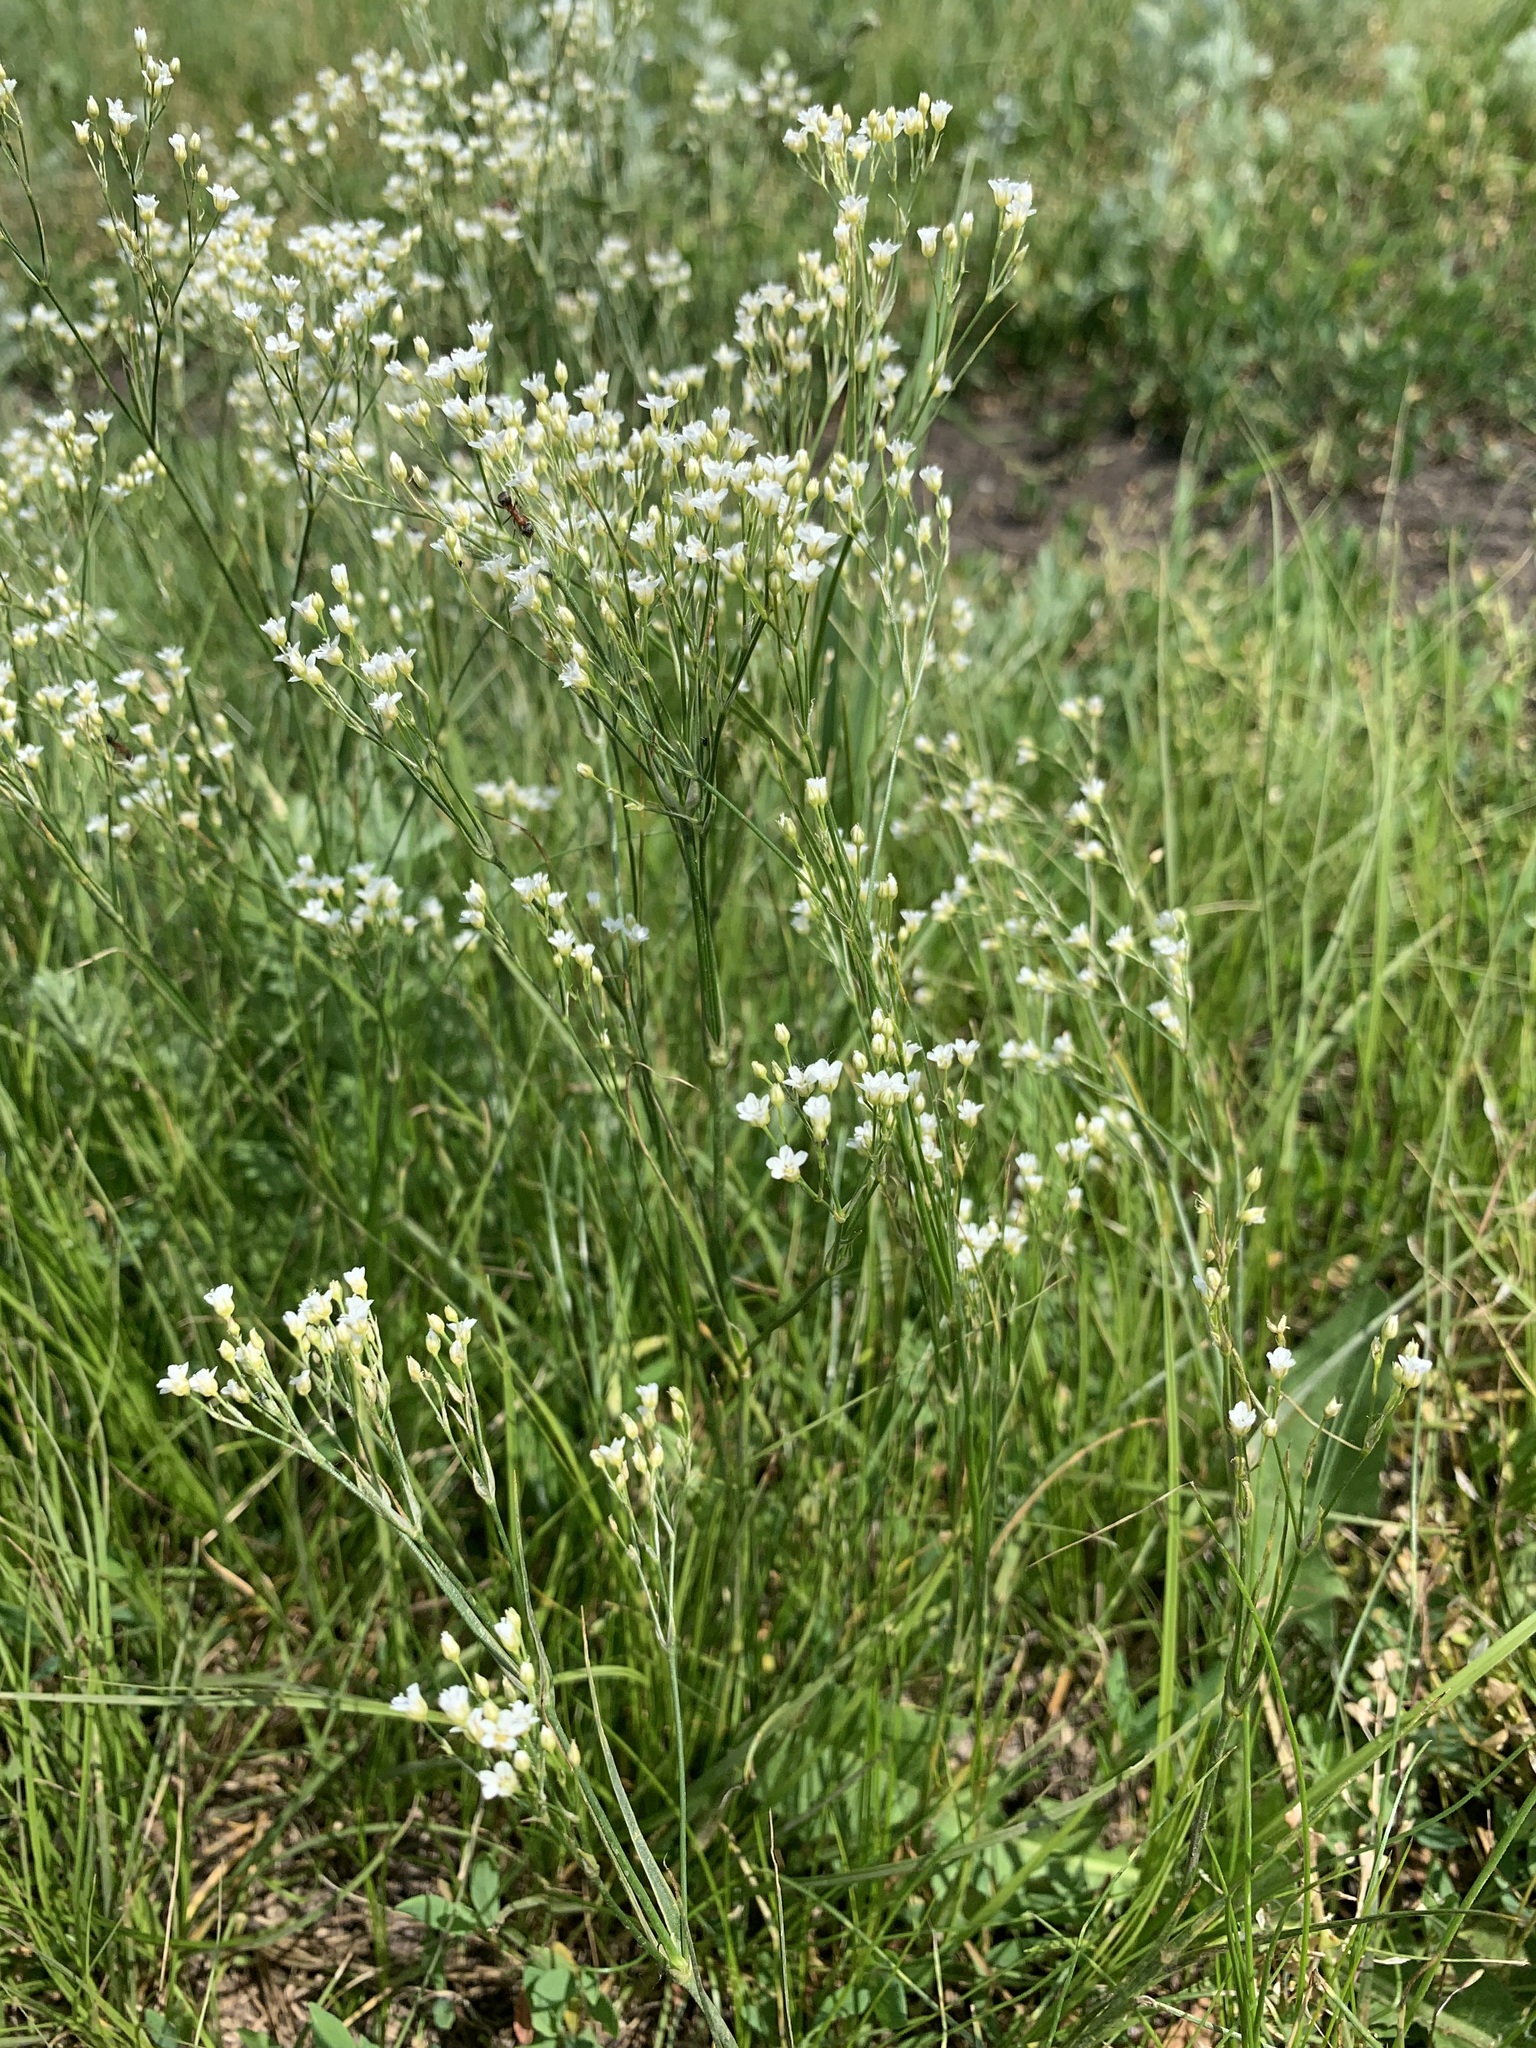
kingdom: Plantae
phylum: Tracheophyta
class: Magnoliopsida
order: Caryophyllales
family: Caryophyllaceae
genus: Eremogone
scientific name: Eremogone longifolia
